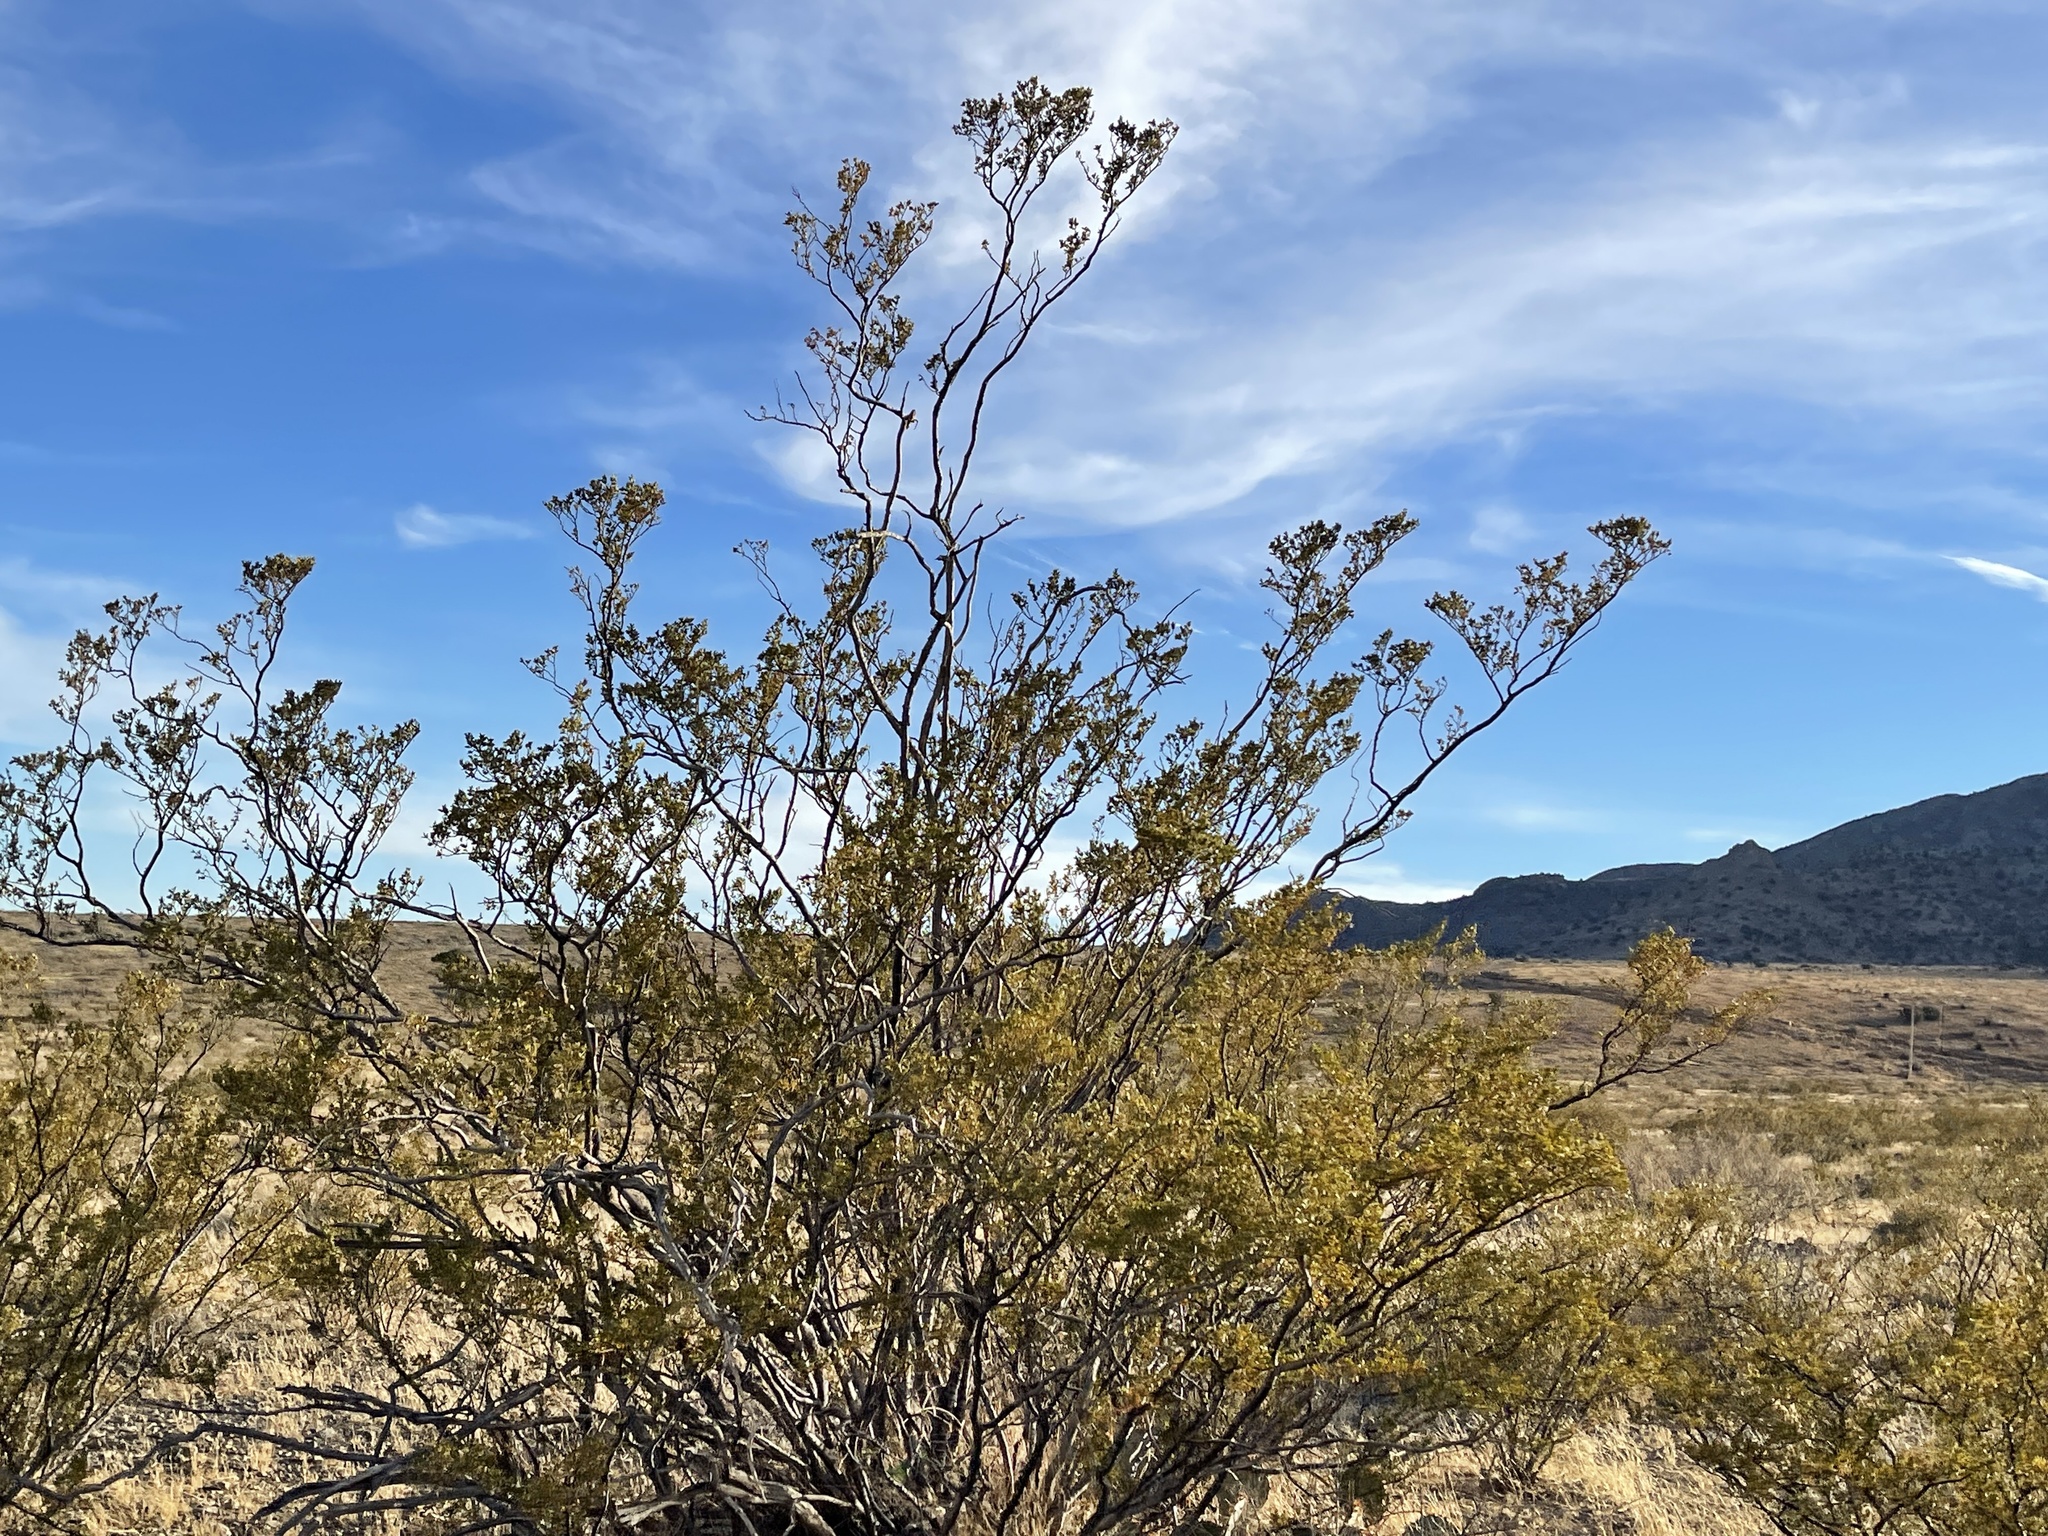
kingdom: Plantae
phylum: Tracheophyta
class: Magnoliopsida
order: Zygophyllales
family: Zygophyllaceae
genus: Larrea
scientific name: Larrea tridentata
